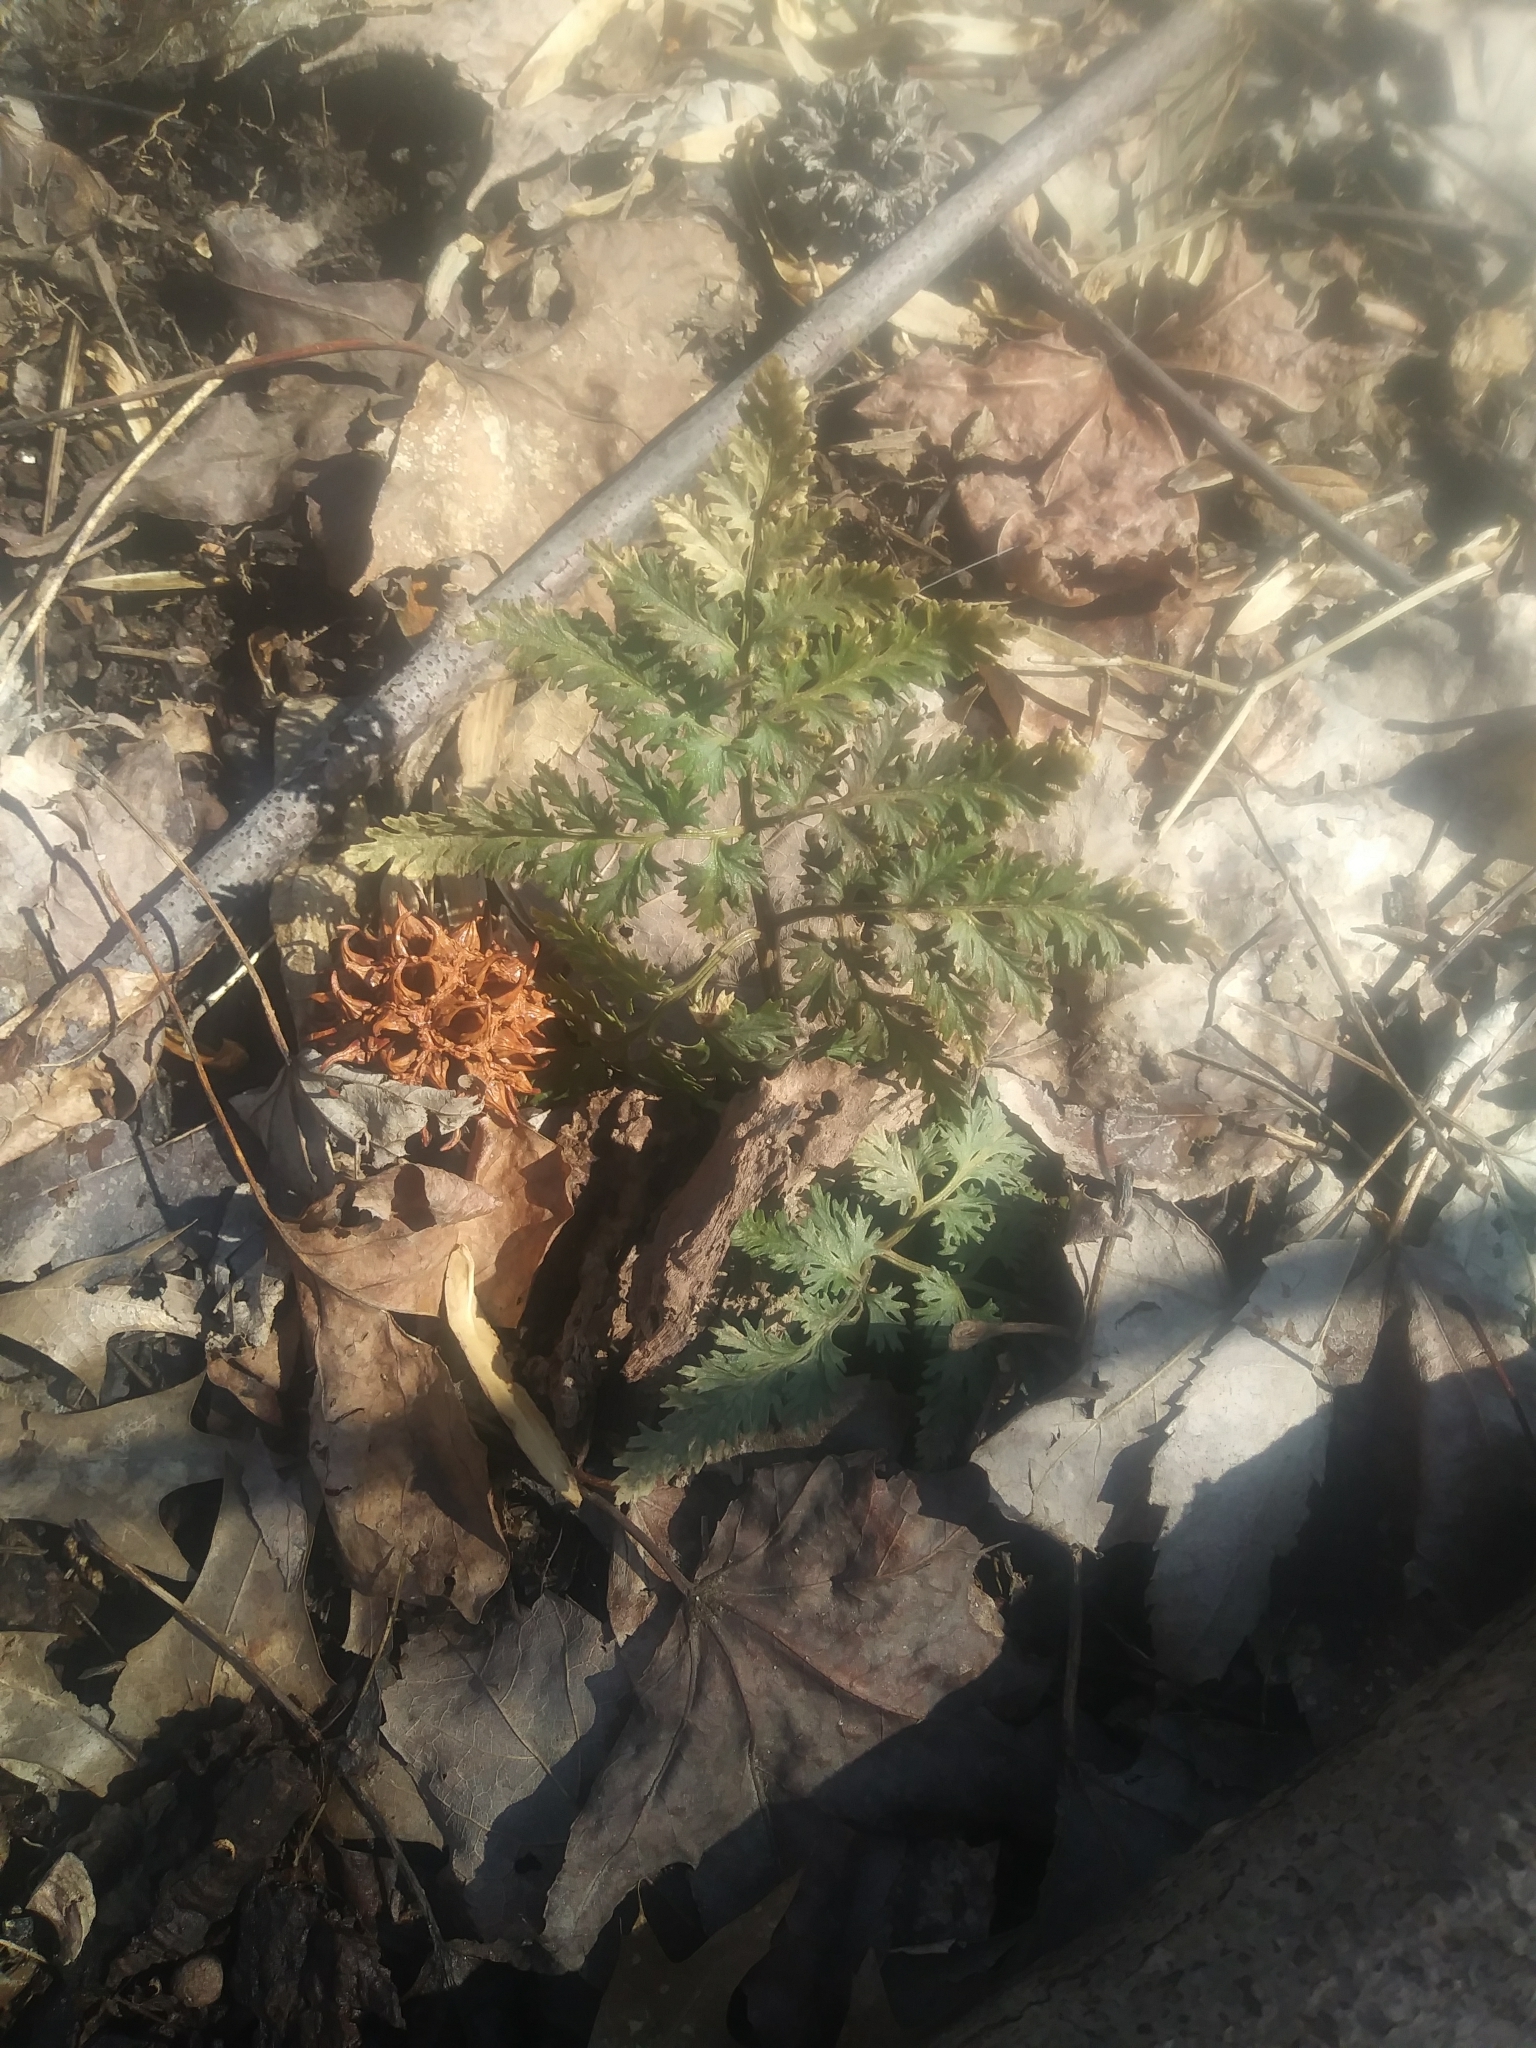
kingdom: Plantae
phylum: Tracheophyta
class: Polypodiopsida
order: Ophioglossales
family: Ophioglossaceae
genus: Sceptridium
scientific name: Sceptridium dissectum
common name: Cut-leaved grapefern
